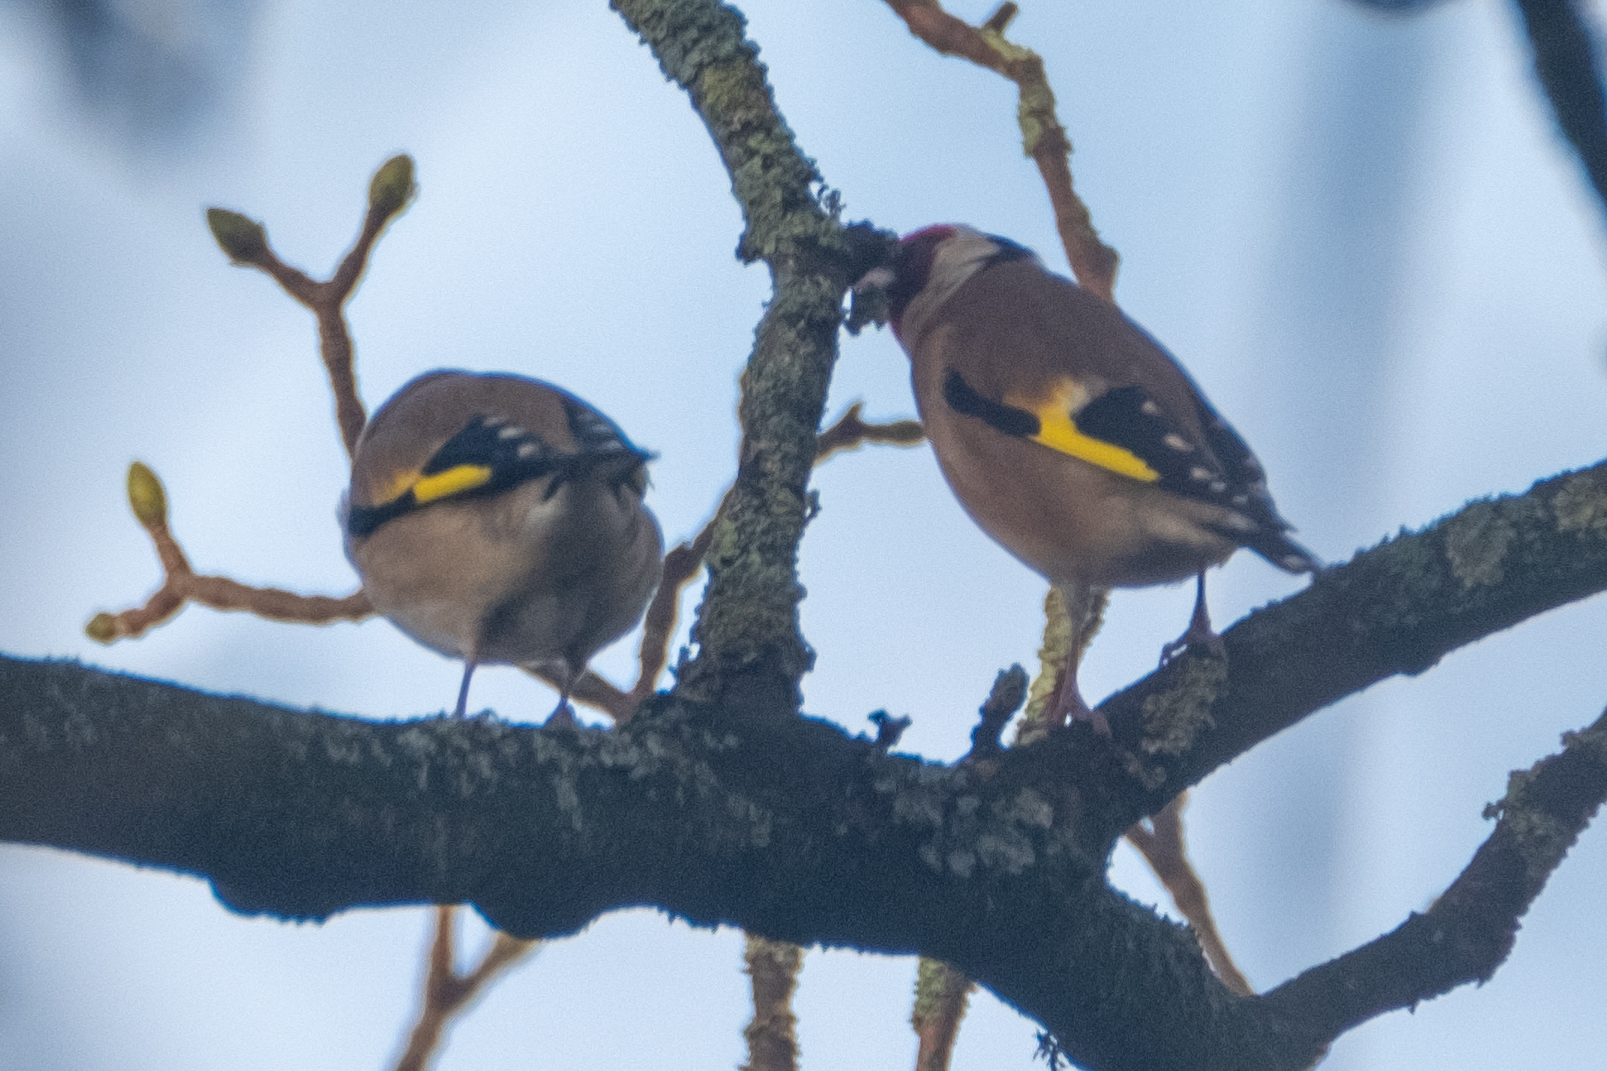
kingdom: Animalia
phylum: Chordata
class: Aves
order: Passeriformes
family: Fringillidae
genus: Carduelis
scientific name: Carduelis carduelis
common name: European goldfinch
